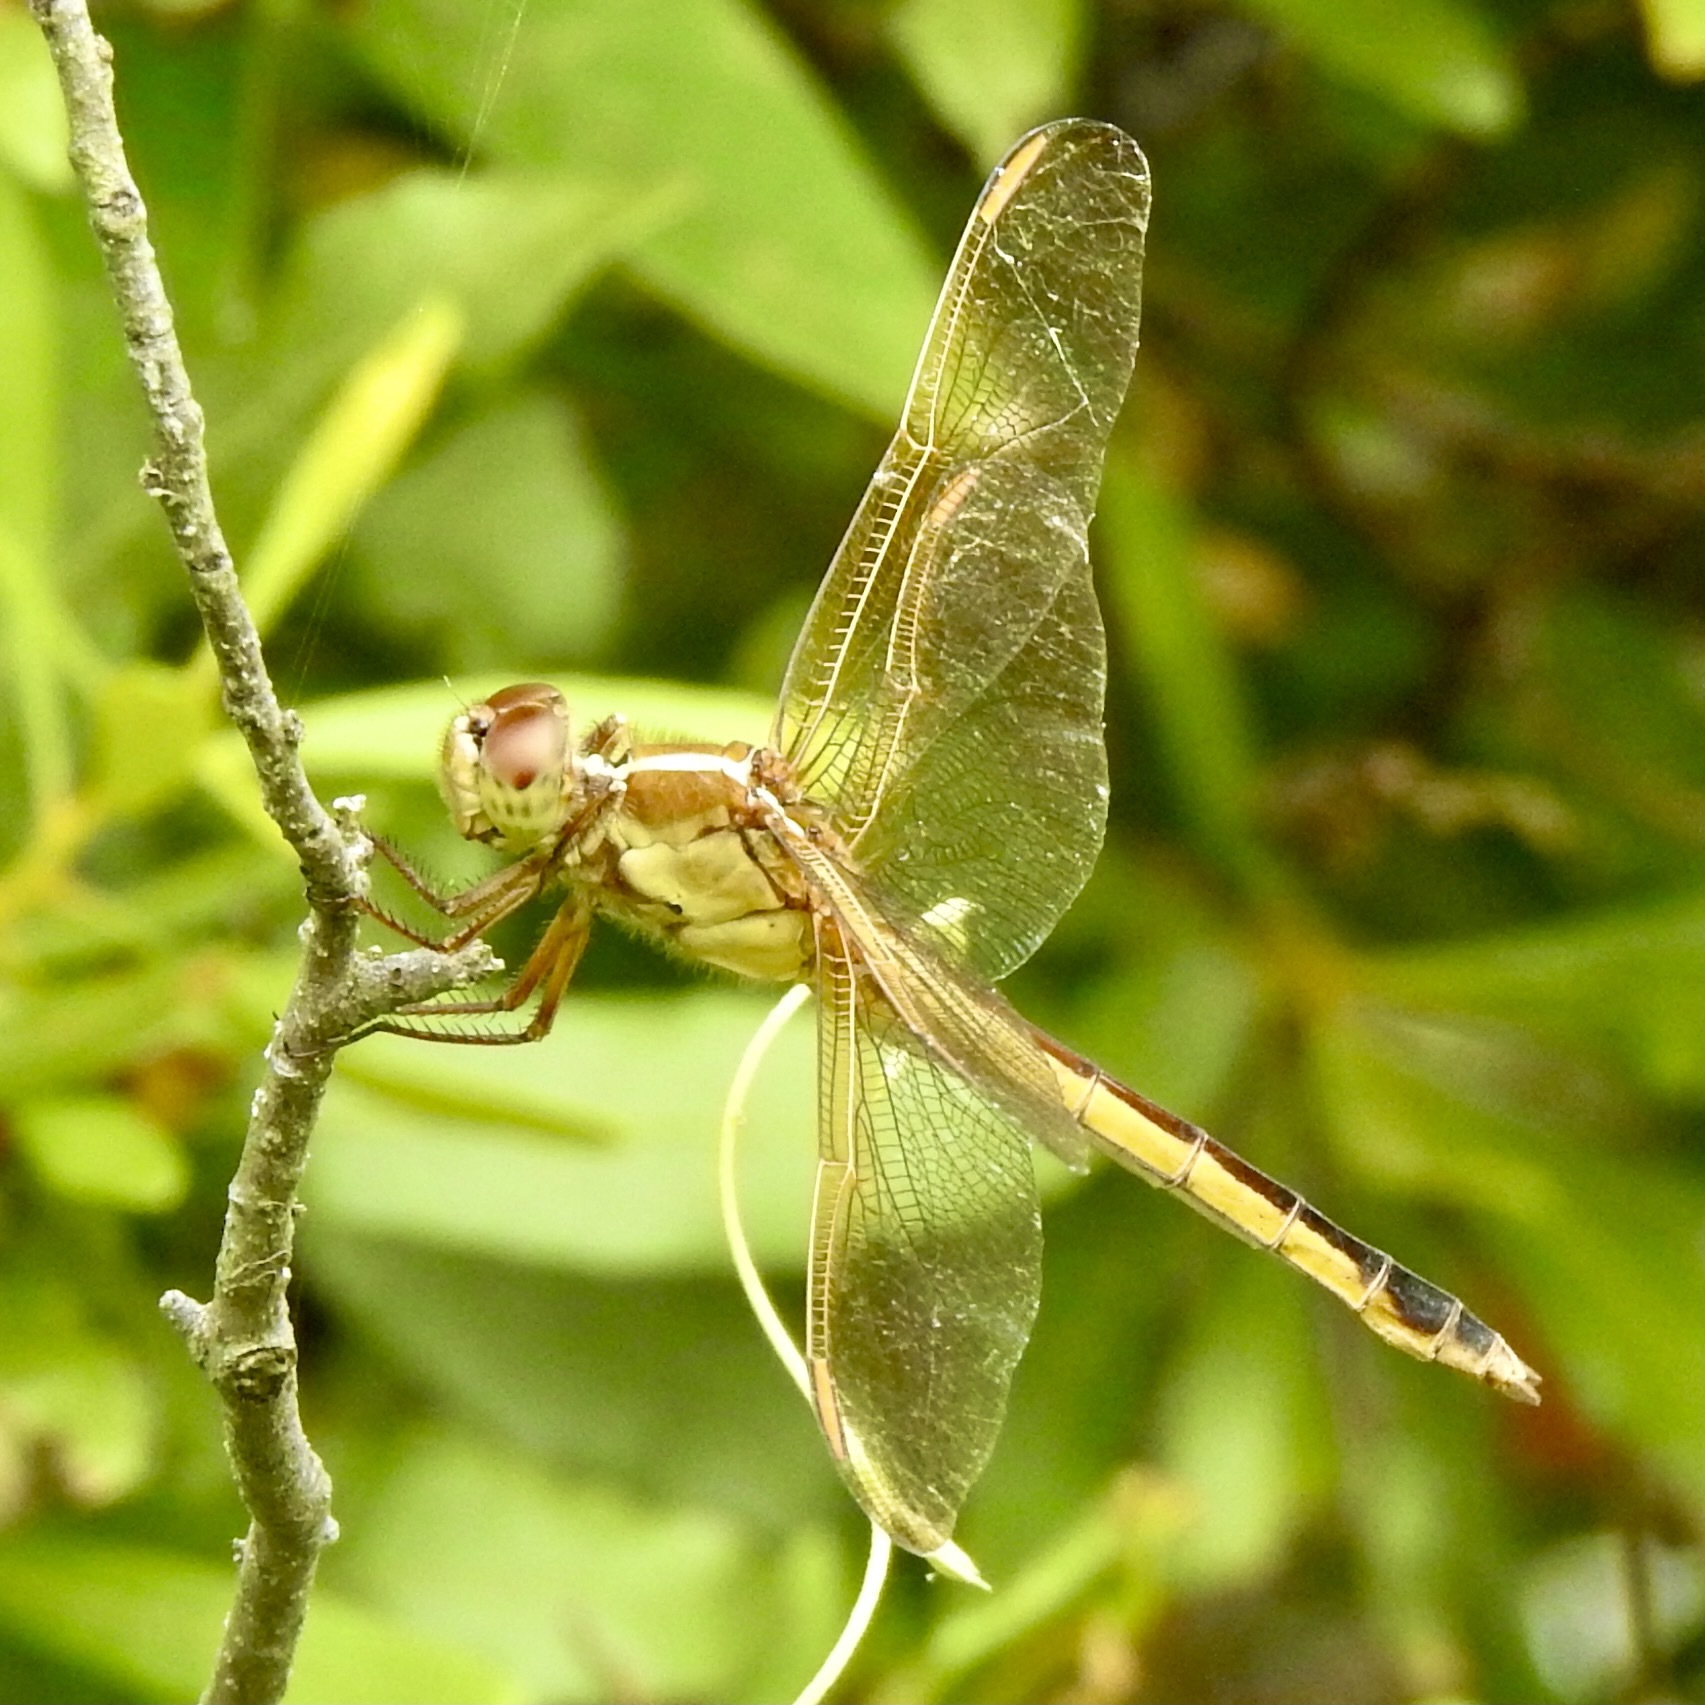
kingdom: Animalia
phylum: Arthropoda
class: Insecta
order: Odonata
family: Libellulidae
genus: Libellula
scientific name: Libellula needhami
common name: Needham's skimmer
